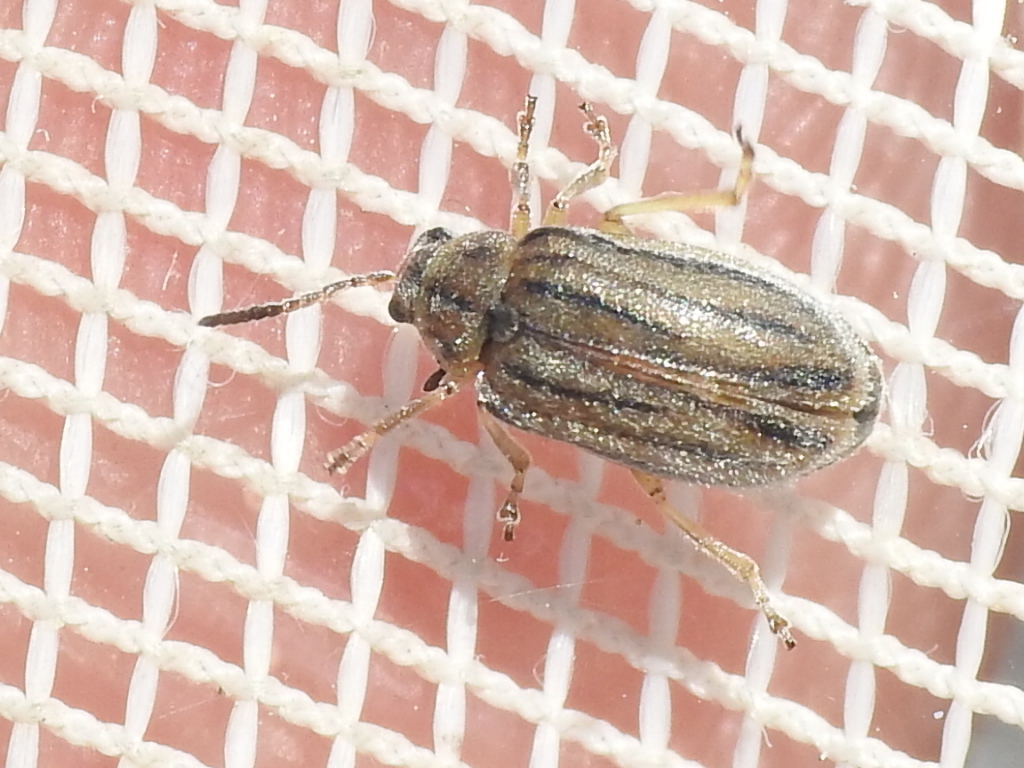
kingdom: Animalia
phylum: Arthropoda
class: Insecta
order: Coleoptera
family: Chrysomelidae
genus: Ophraella
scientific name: Ophraella communa
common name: Ragweed leaf beetle
